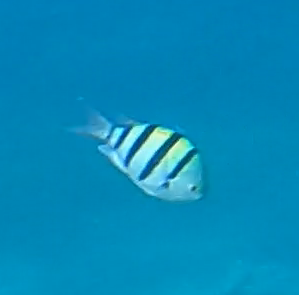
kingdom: Animalia
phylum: Chordata
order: Perciformes
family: Pomacentridae
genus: Abudefduf
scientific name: Abudefduf vaigiensis
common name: Indo-pacific sergeant
